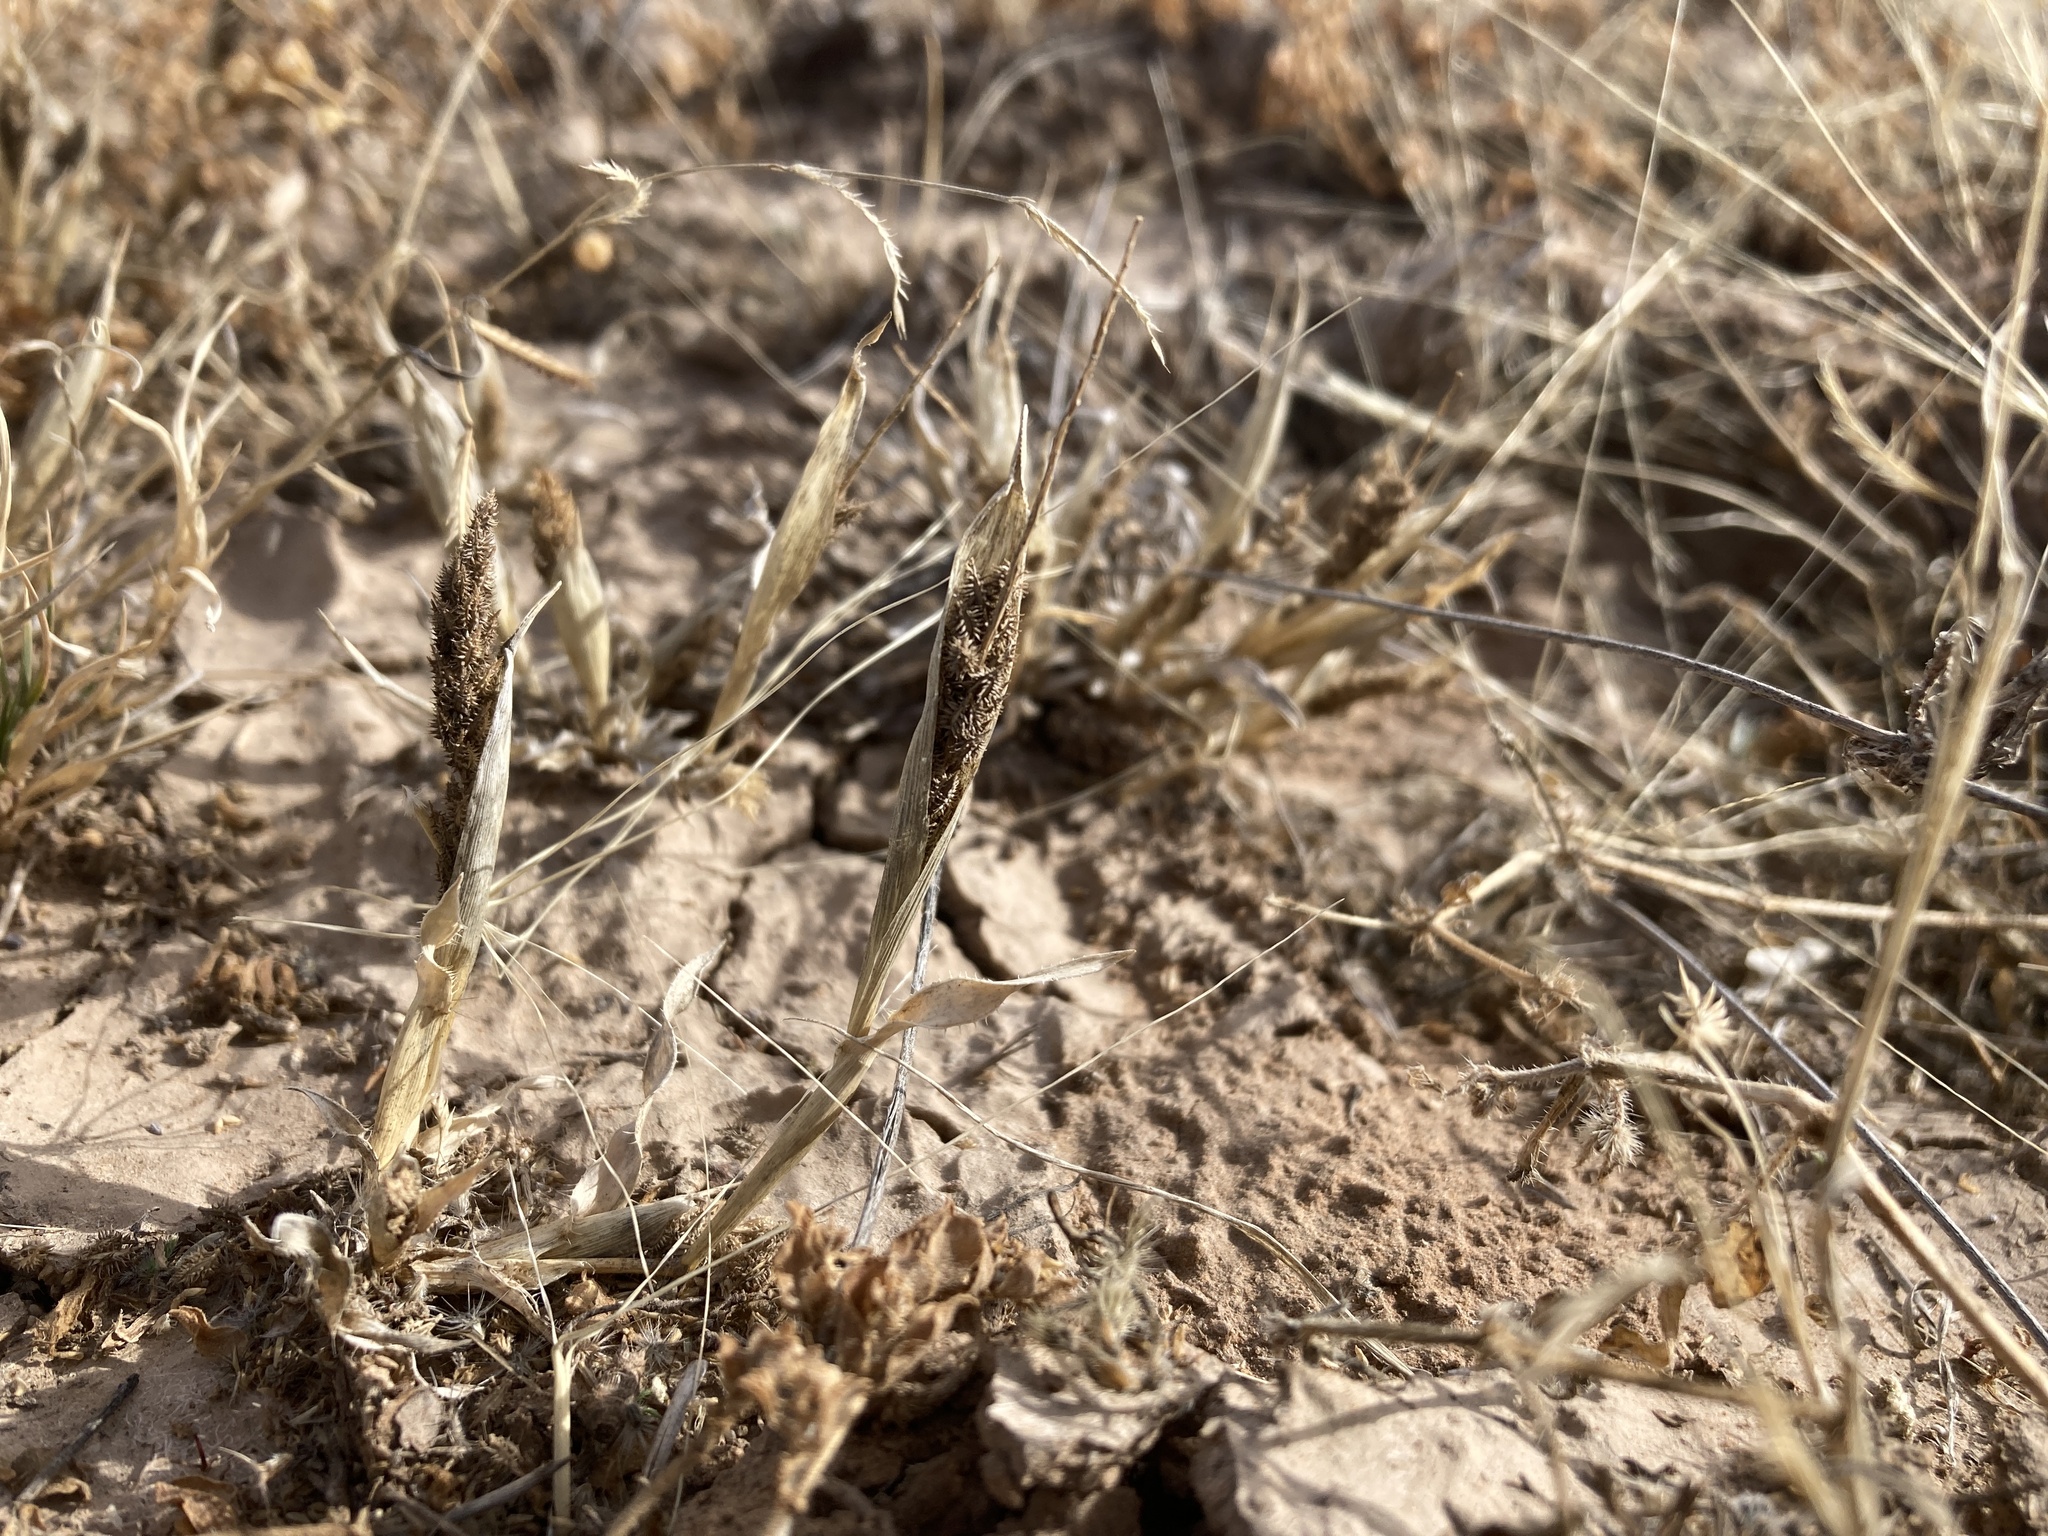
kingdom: Plantae
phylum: Tracheophyta
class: Liliopsida
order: Poales
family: Poaceae
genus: Tragus
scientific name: Tragus berteronianus
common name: African bur-grass
